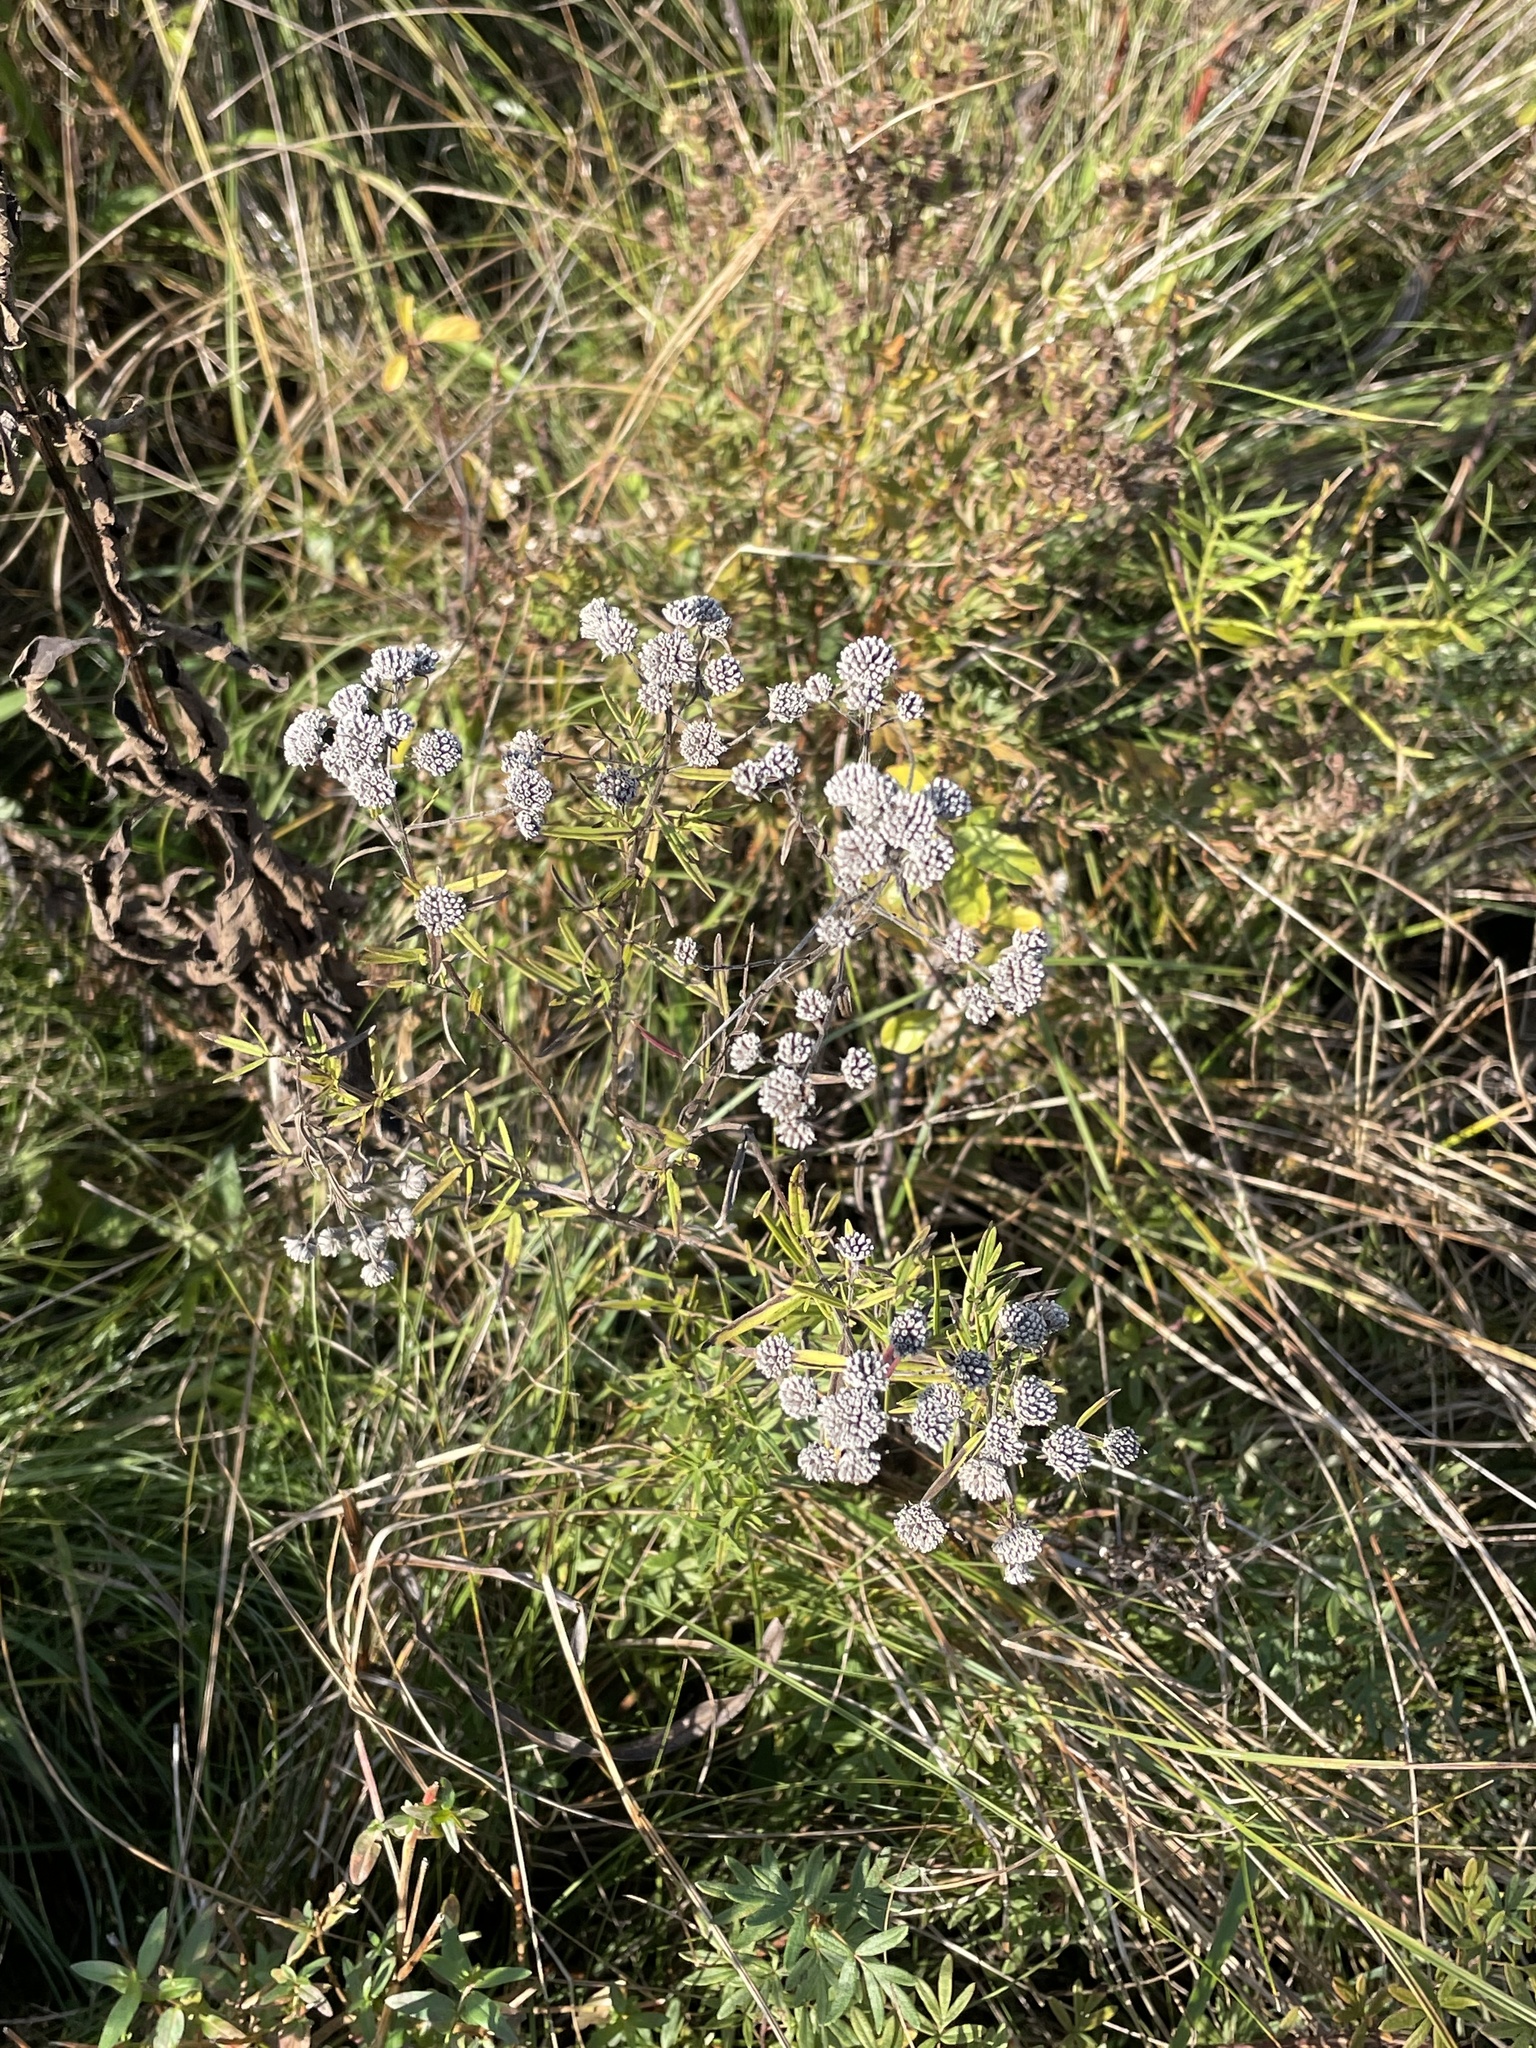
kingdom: Plantae
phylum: Tracheophyta
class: Magnoliopsida
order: Lamiales
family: Lamiaceae
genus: Pycnanthemum
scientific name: Pycnanthemum virginianum
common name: Virginia mountain-mint
